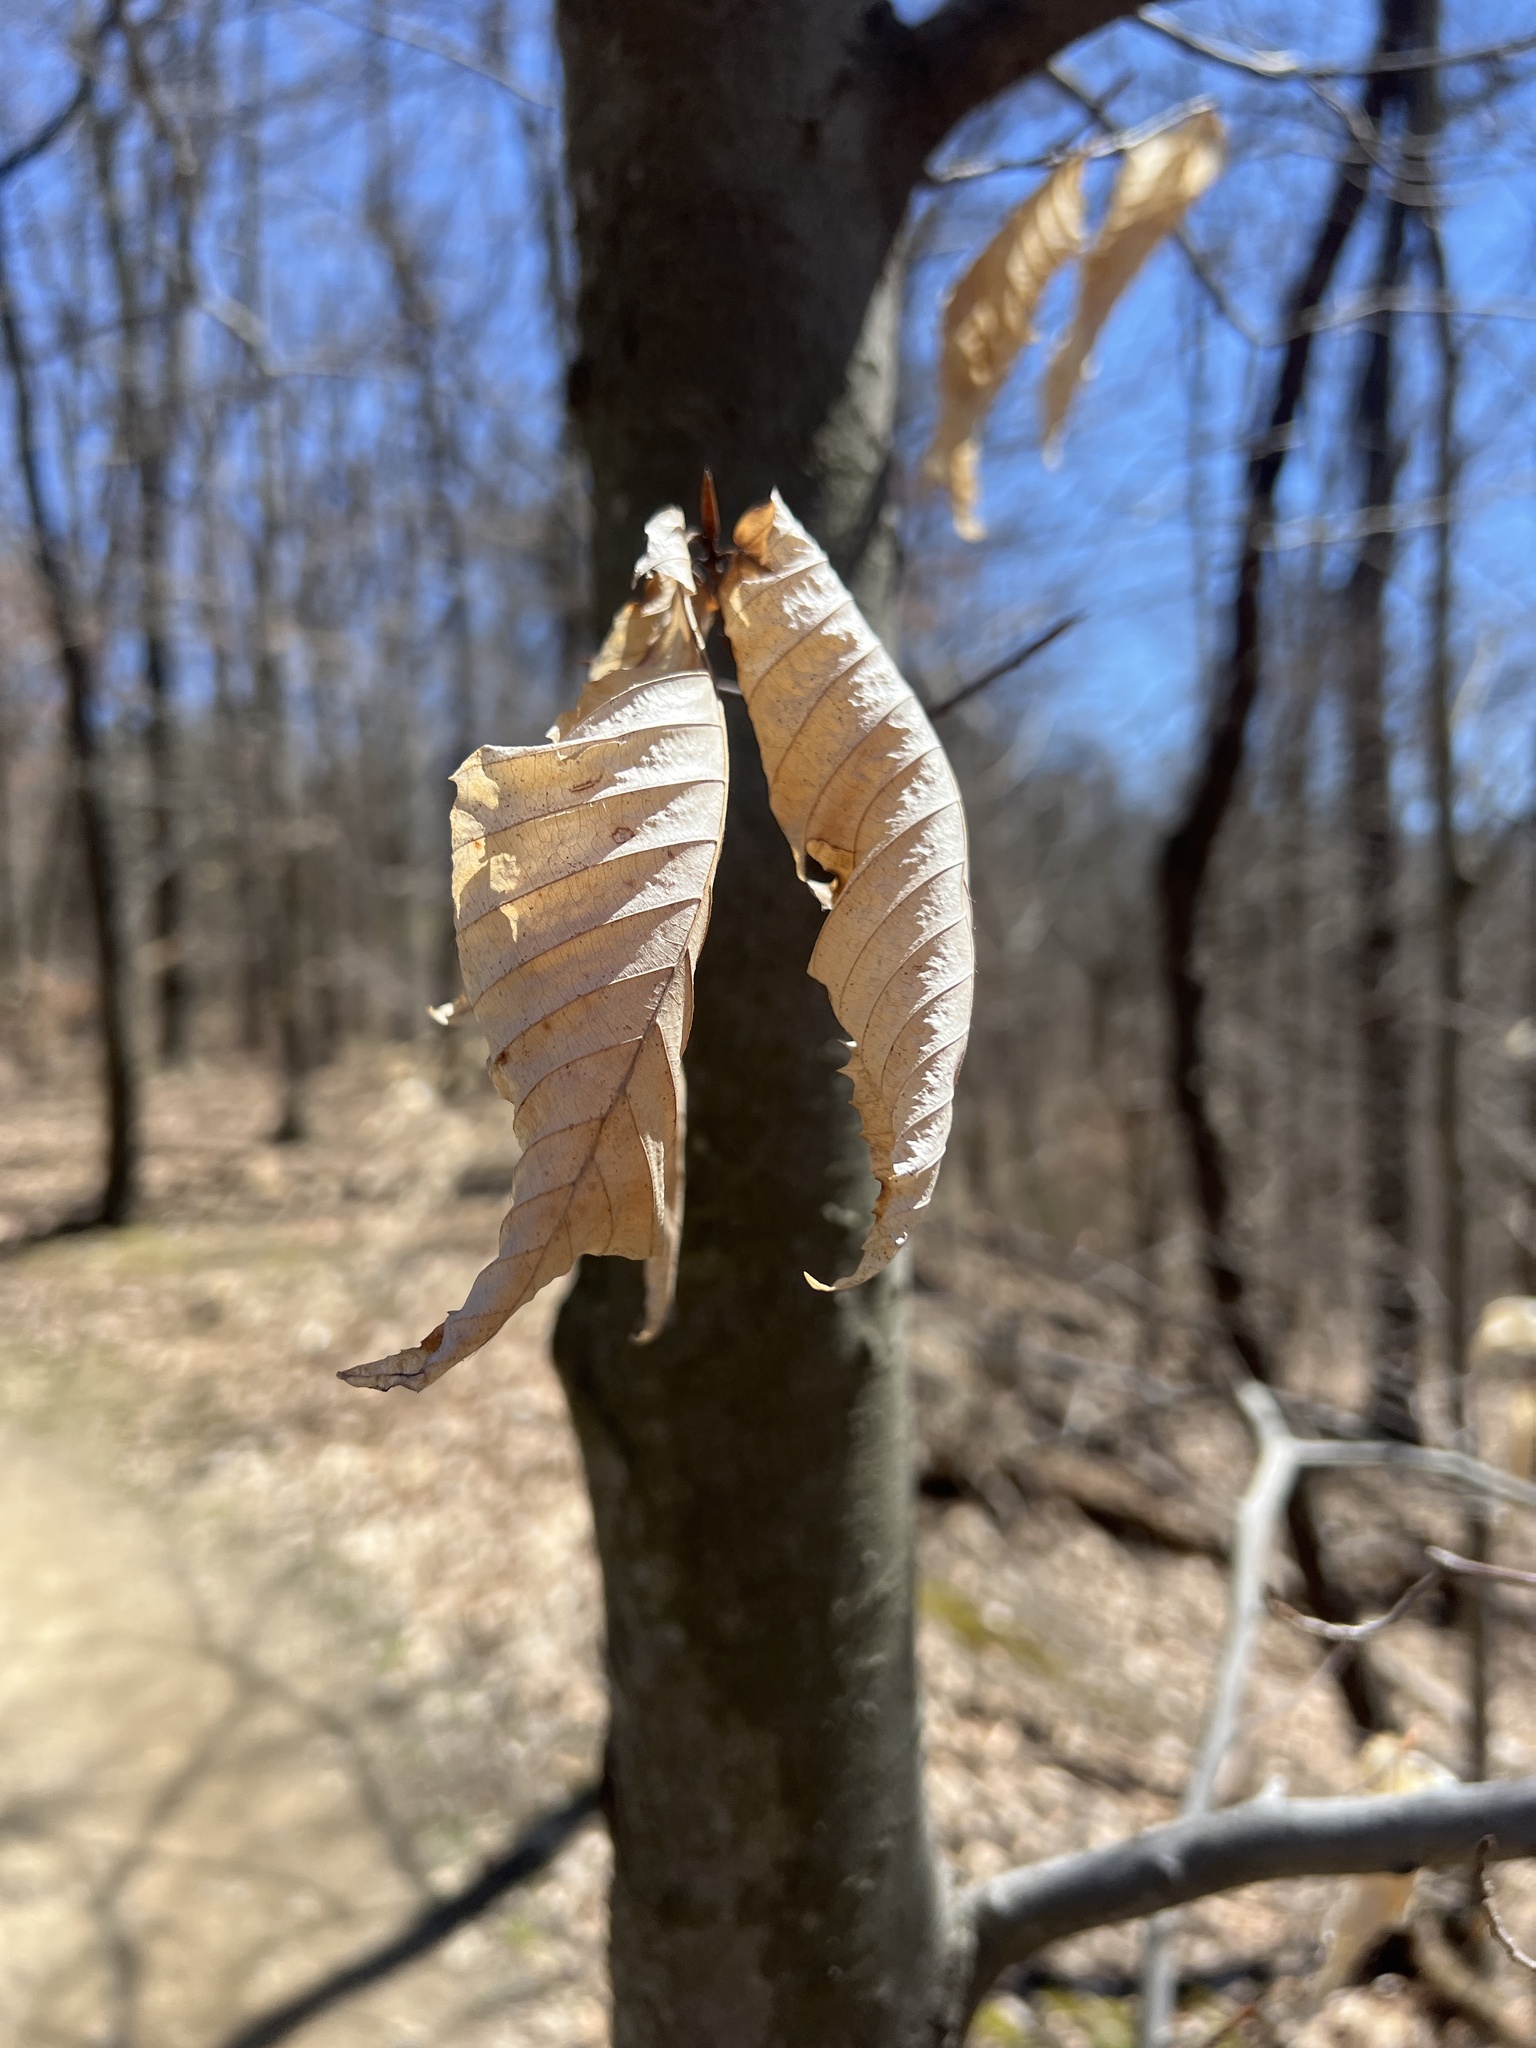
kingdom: Plantae
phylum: Tracheophyta
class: Magnoliopsida
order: Fagales
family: Fagaceae
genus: Fagus
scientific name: Fagus grandifolia
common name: American beech
